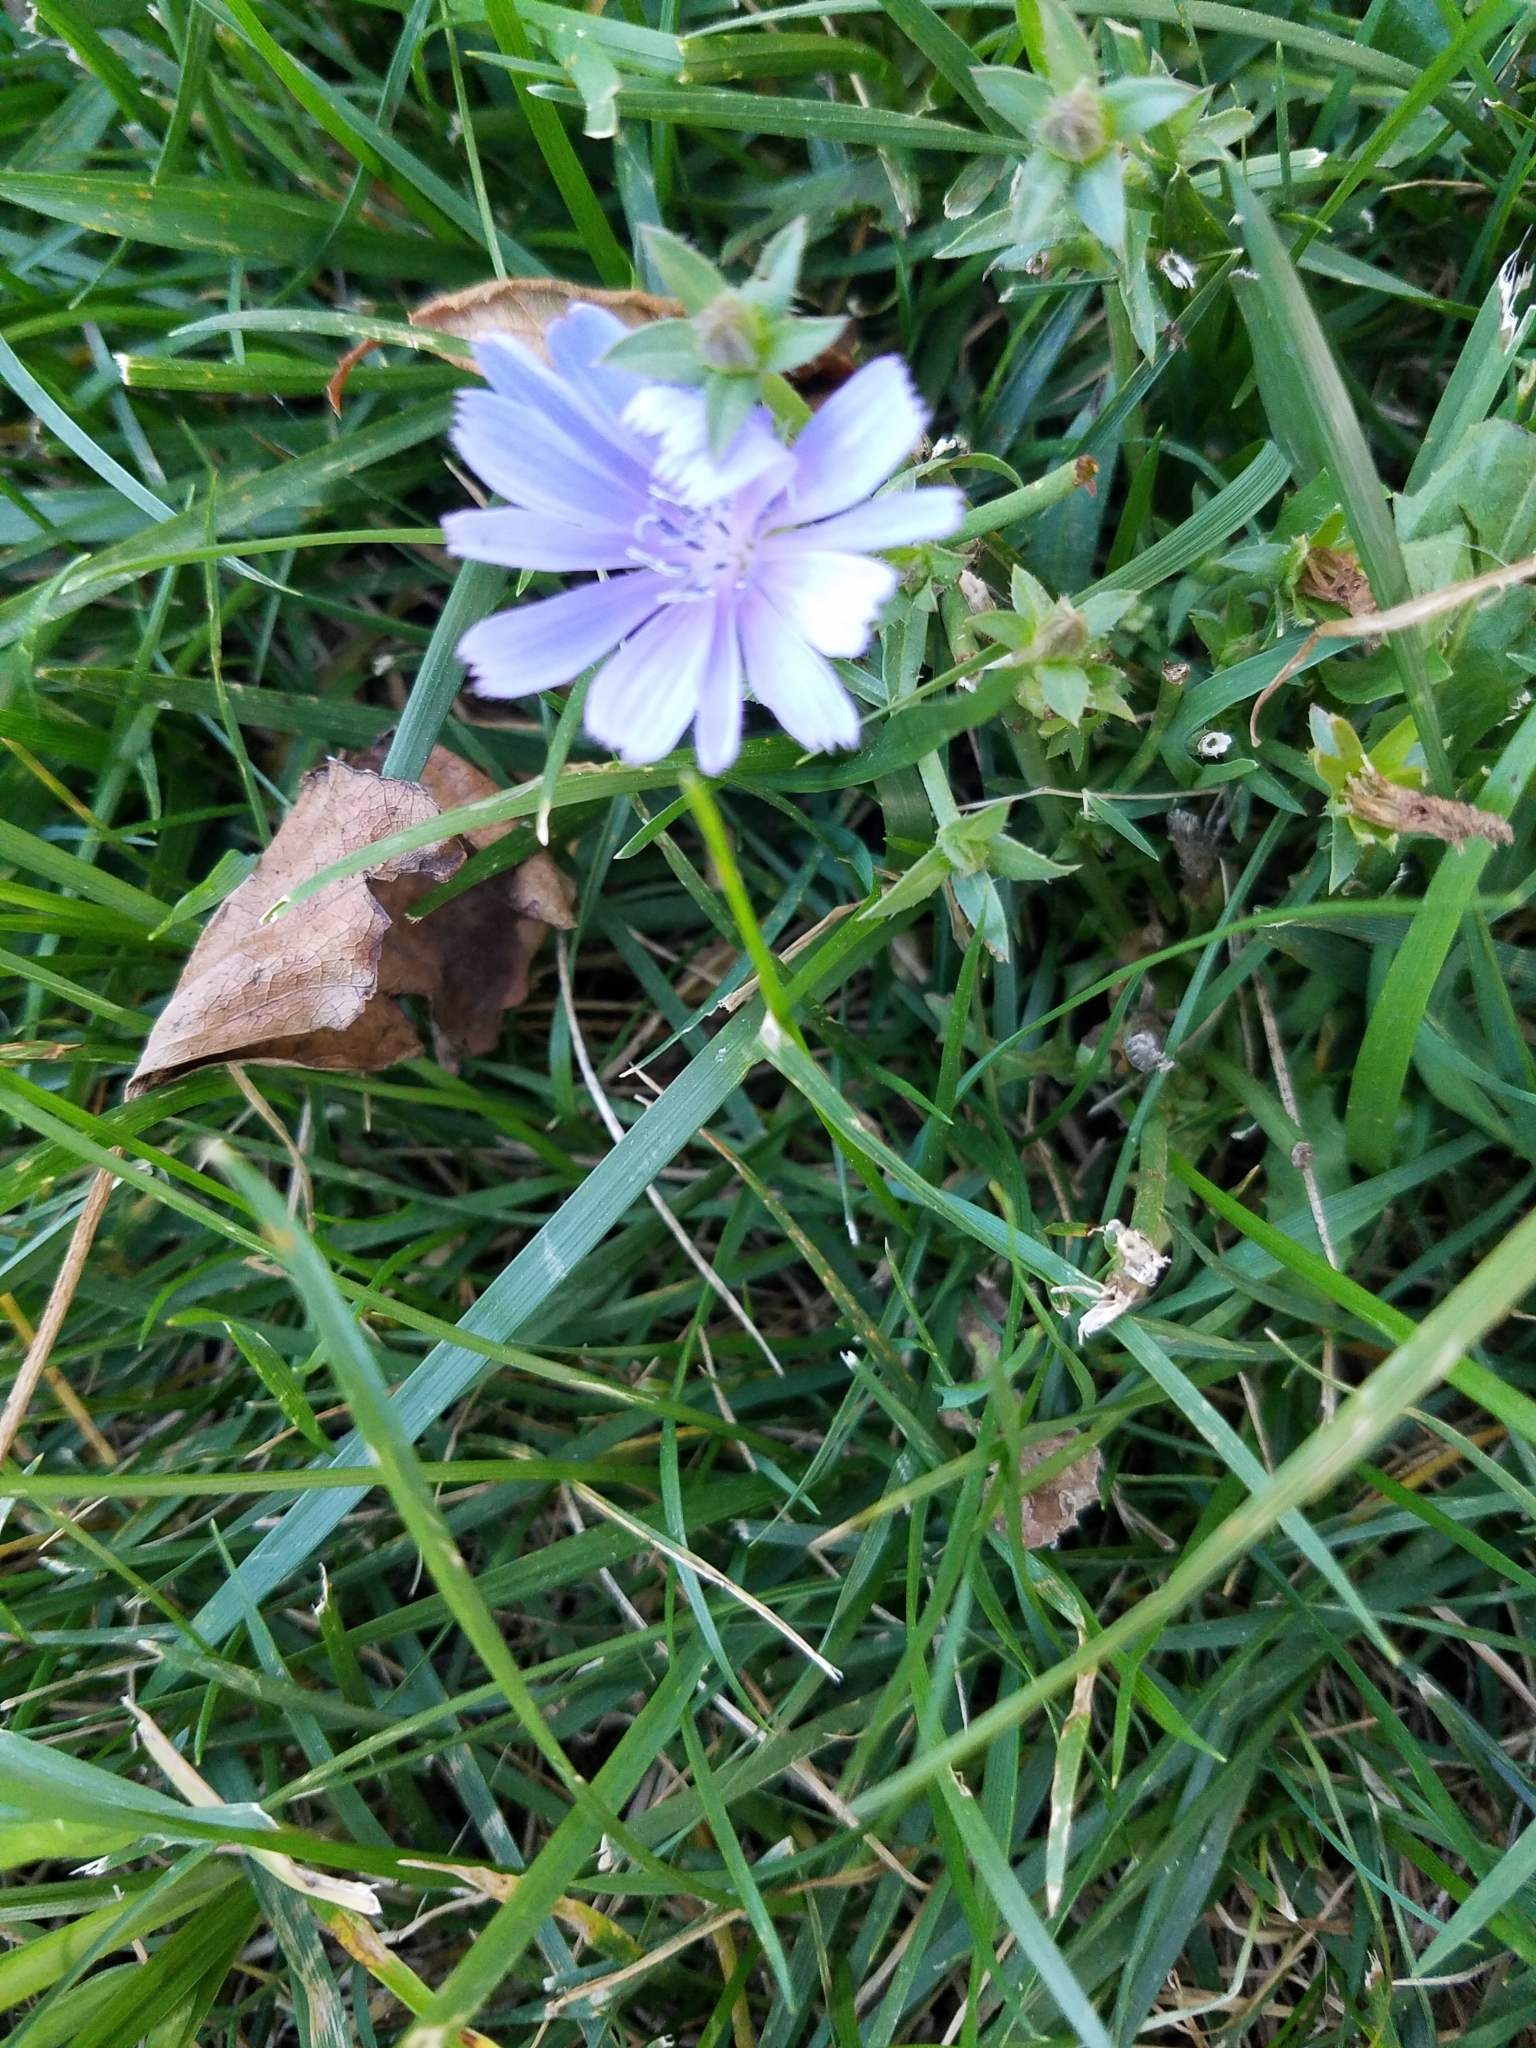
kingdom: Plantae
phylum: Tracheophyta
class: Magnoliopsida
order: Asterales
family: Asteraceae
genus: Cichorium
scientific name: Cichorium intybus
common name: Chicory
